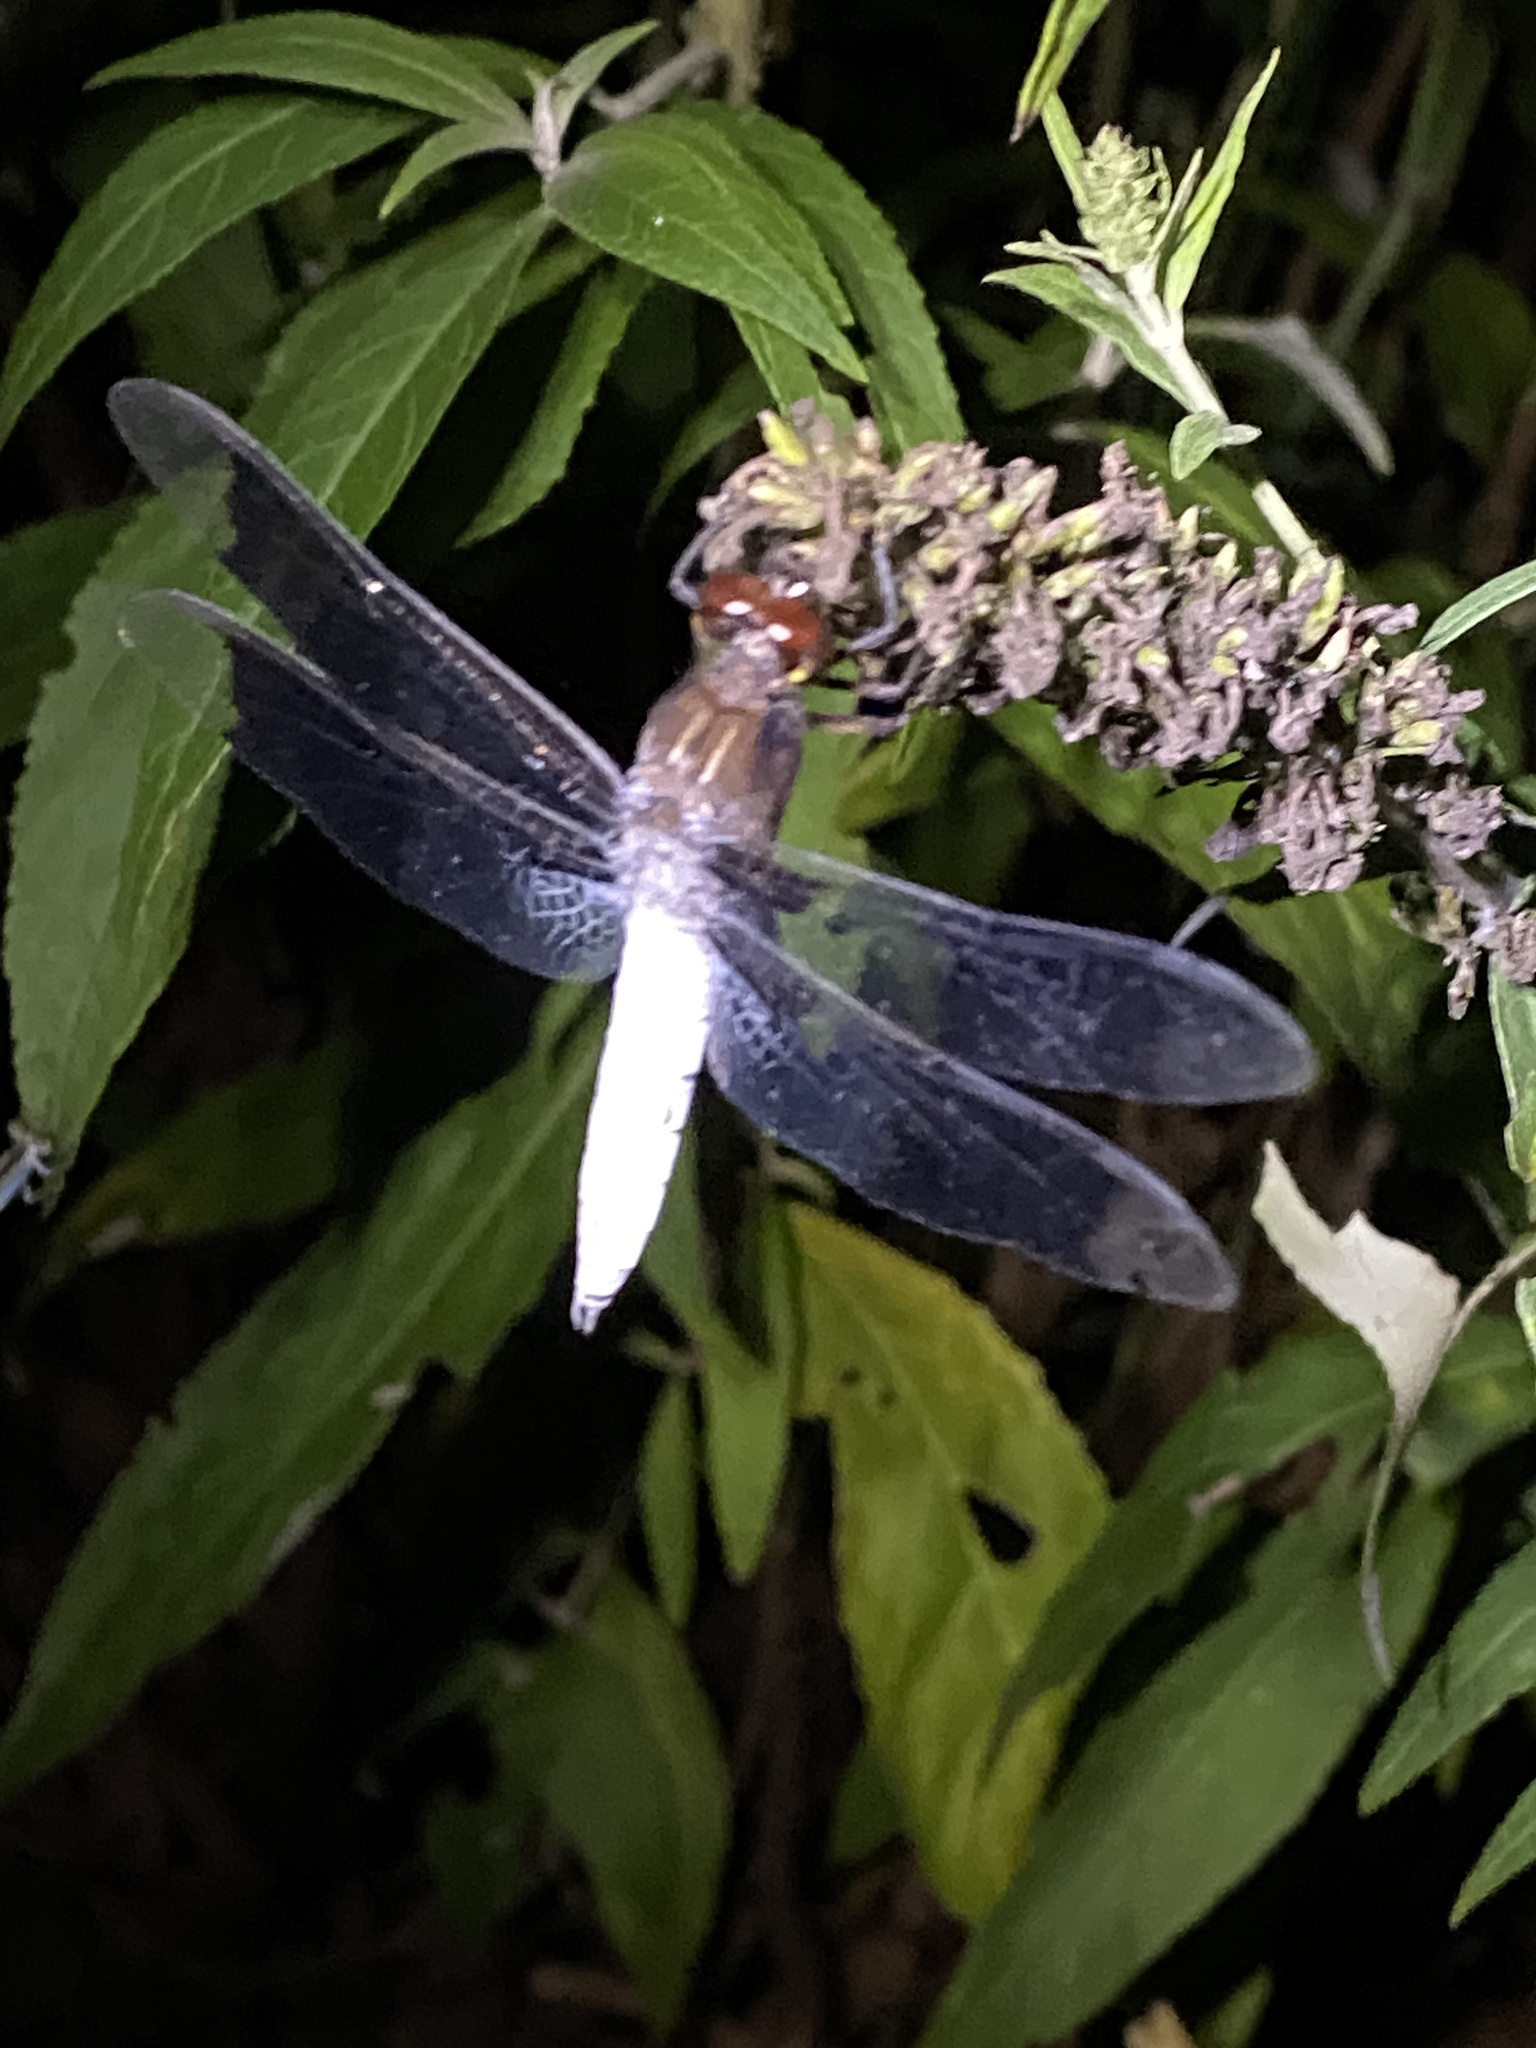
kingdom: Animalia
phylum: Arthropoda
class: Insecta
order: Odonata
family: Libellulidae
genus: Plathemis
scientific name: Plathemis lydia
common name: Common whitetail
